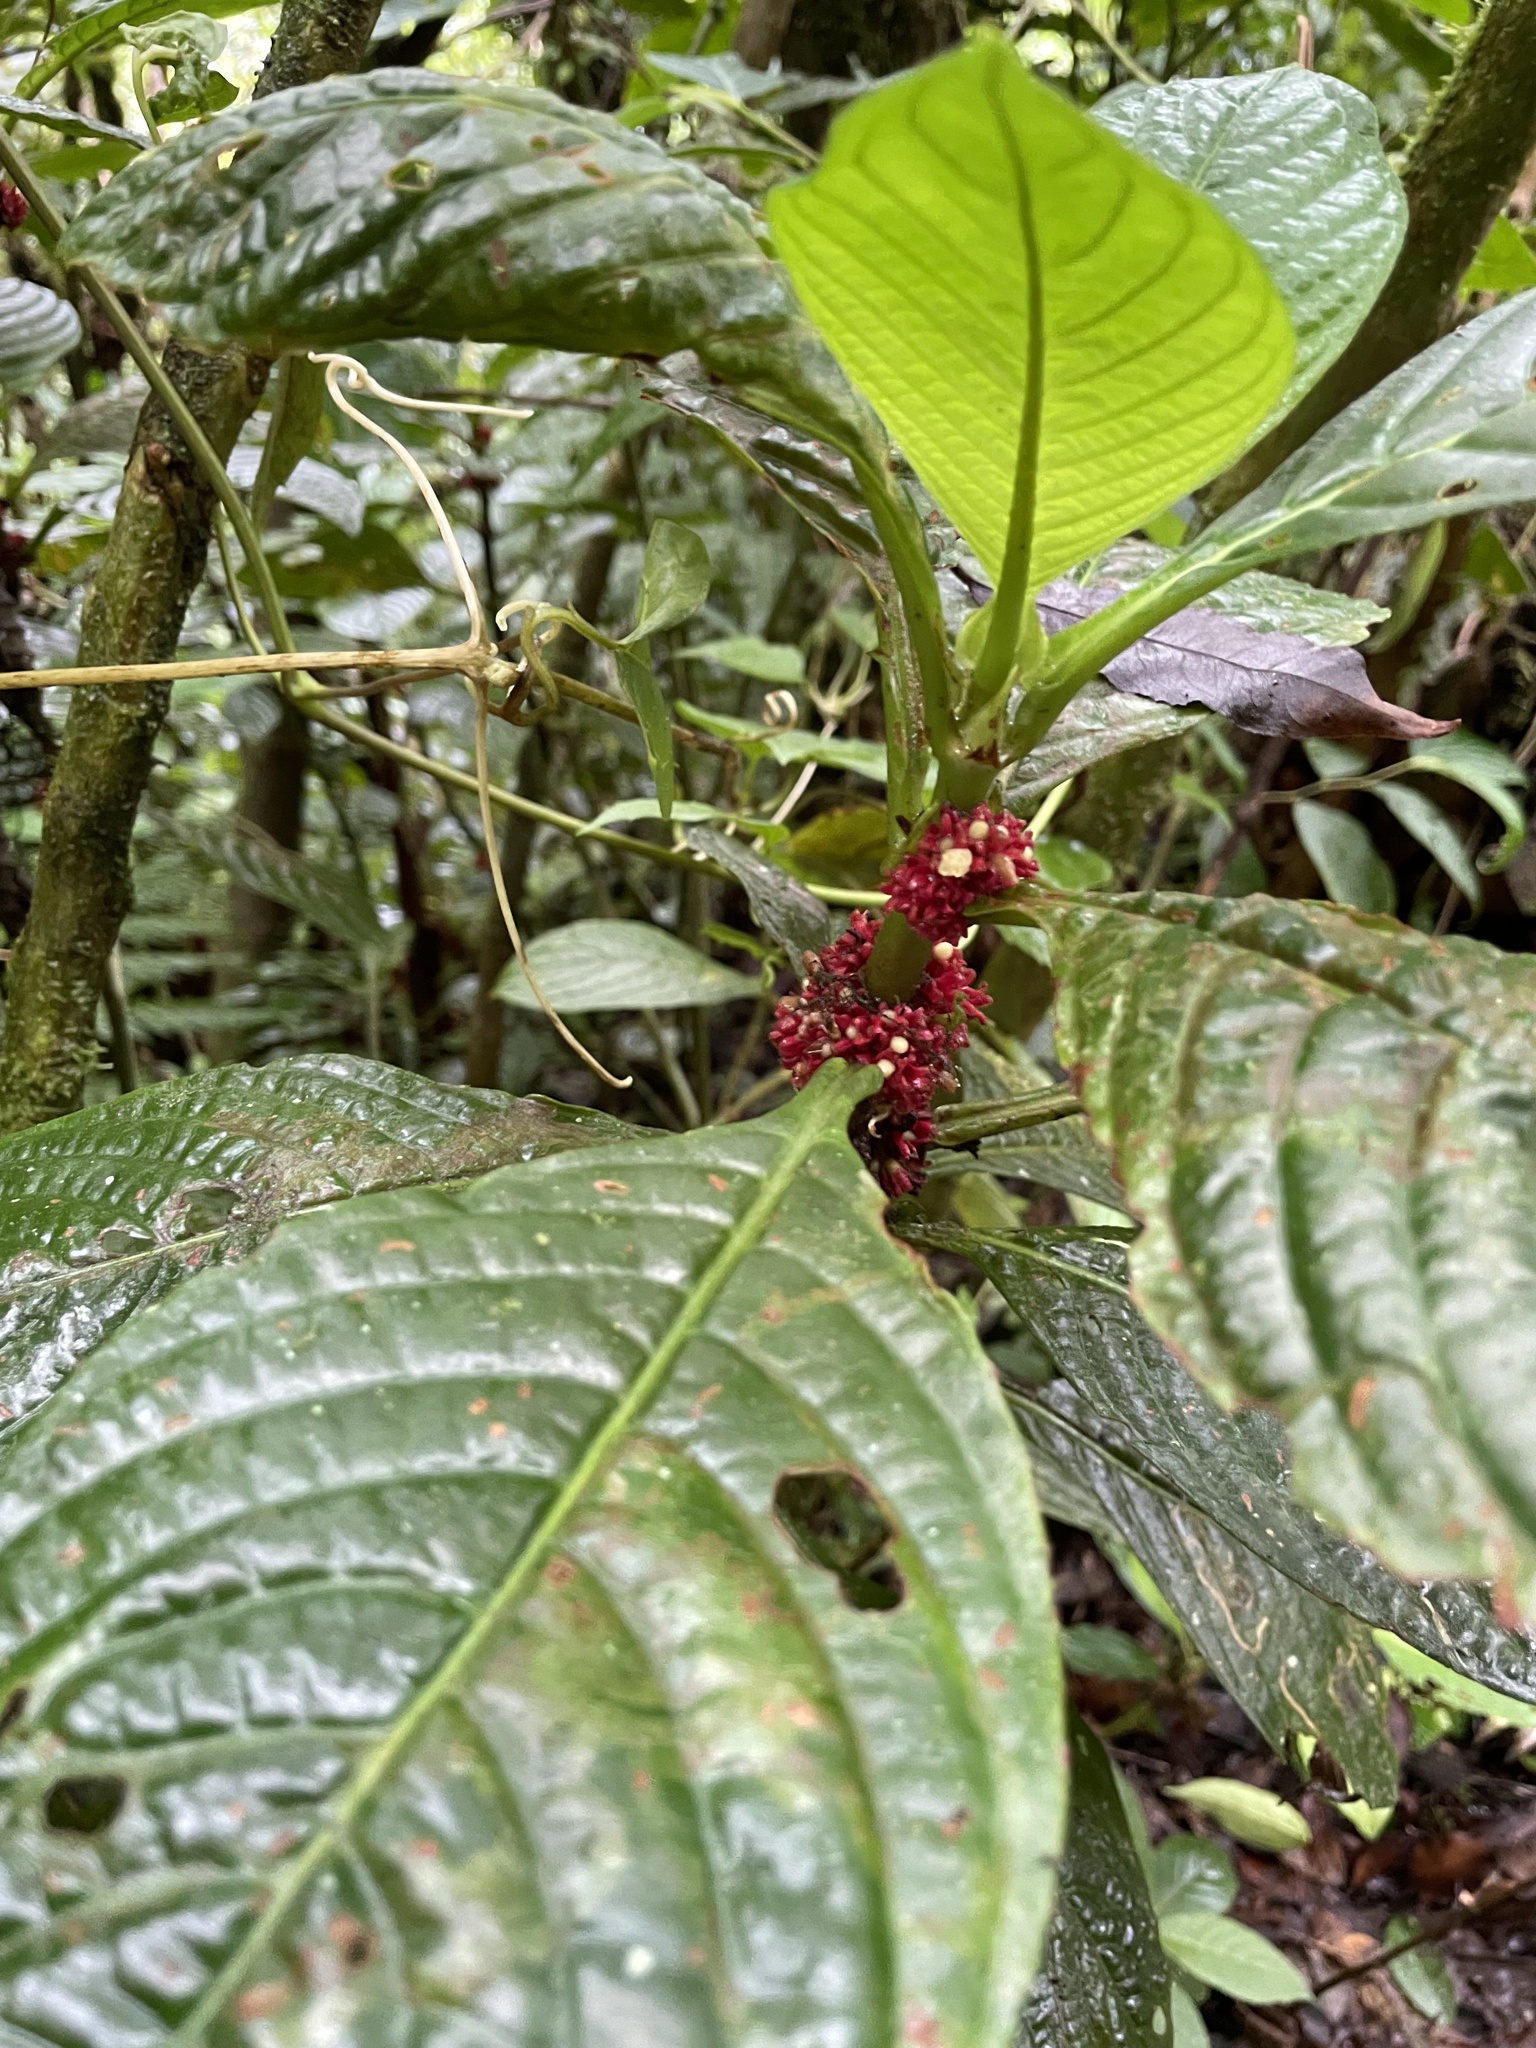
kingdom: Plantae
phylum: Tracheophyta
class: Magnoliopsida
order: Gentianales
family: Rubiaceae
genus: Hoffmannia
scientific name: Hoffmannia congesta
